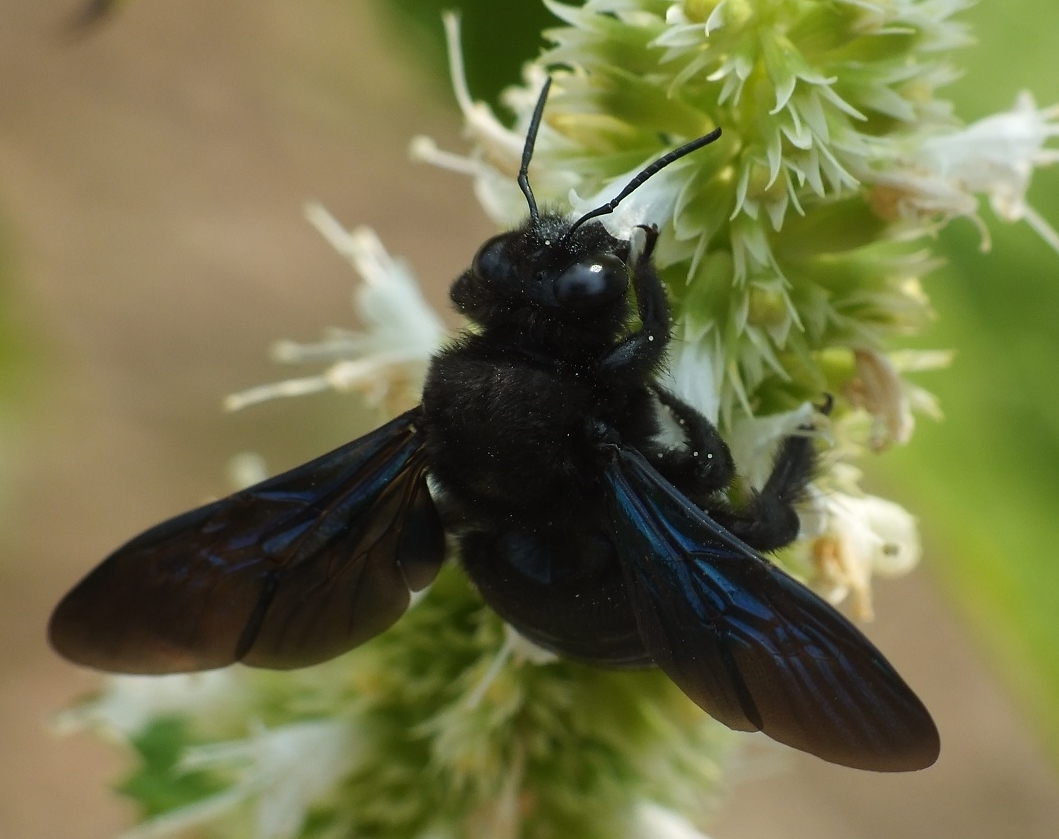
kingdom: Animalia
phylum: Arthropoda
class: Insecta
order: Hymenoptera
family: Apidae
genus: Xylocopa
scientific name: Xylocopa valga
